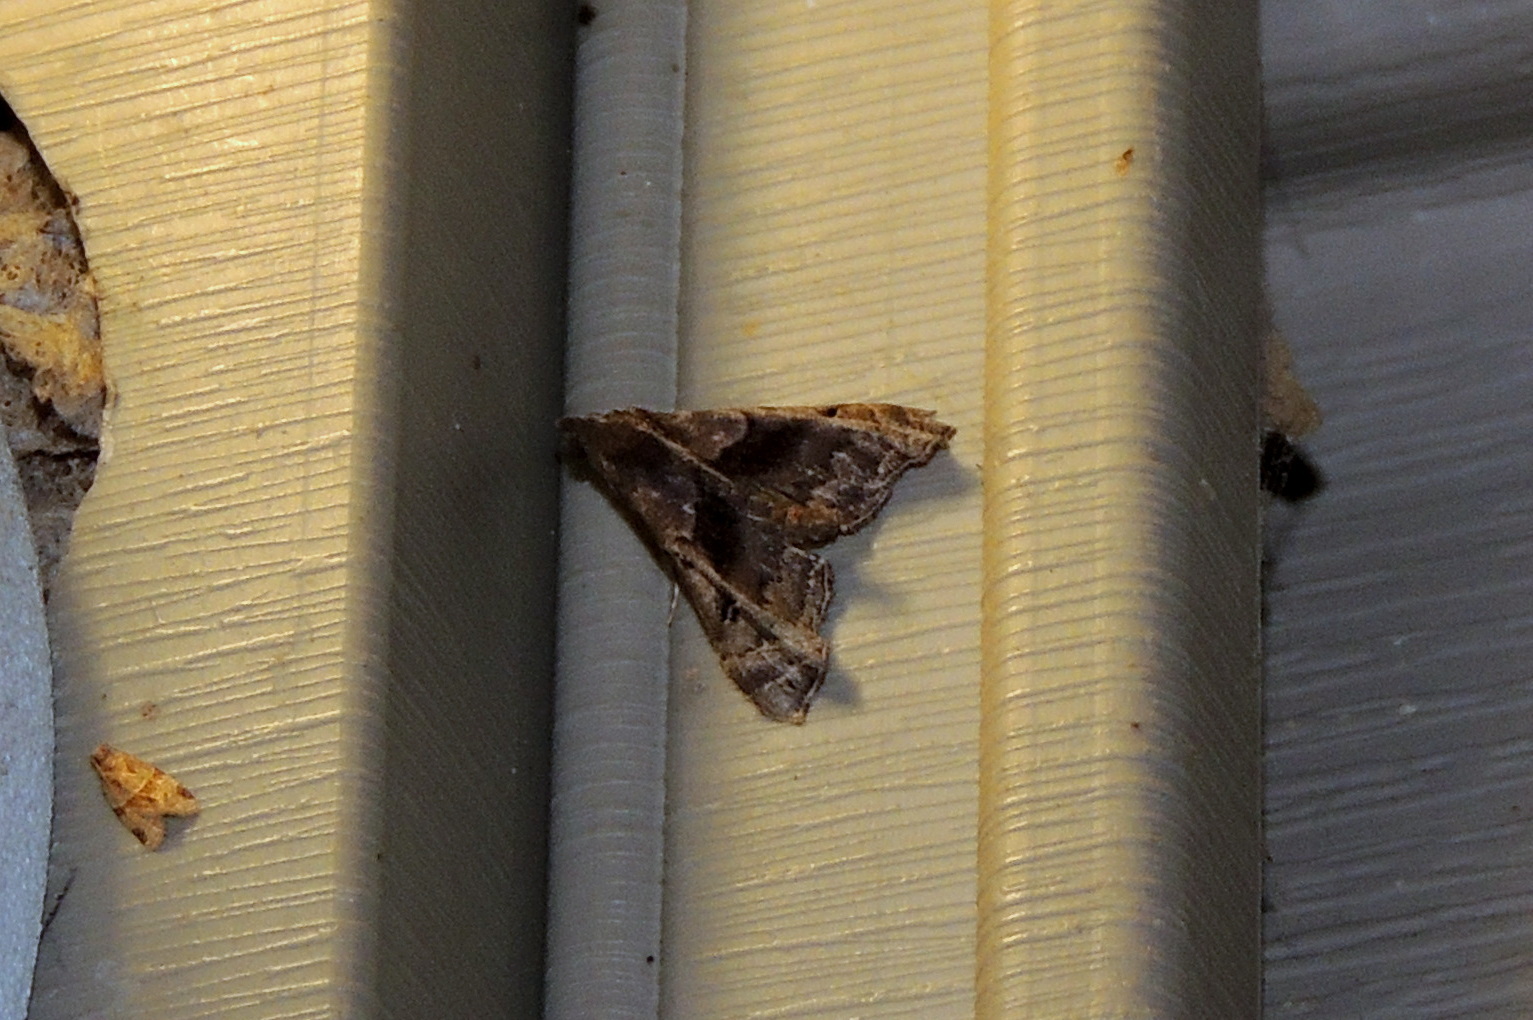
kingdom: Animalia
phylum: Arthropoda
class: Insecta
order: Lepidoptera
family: Erebidae
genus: Palthis
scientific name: Palthis asopialis
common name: Faint-spotted palthis moth
